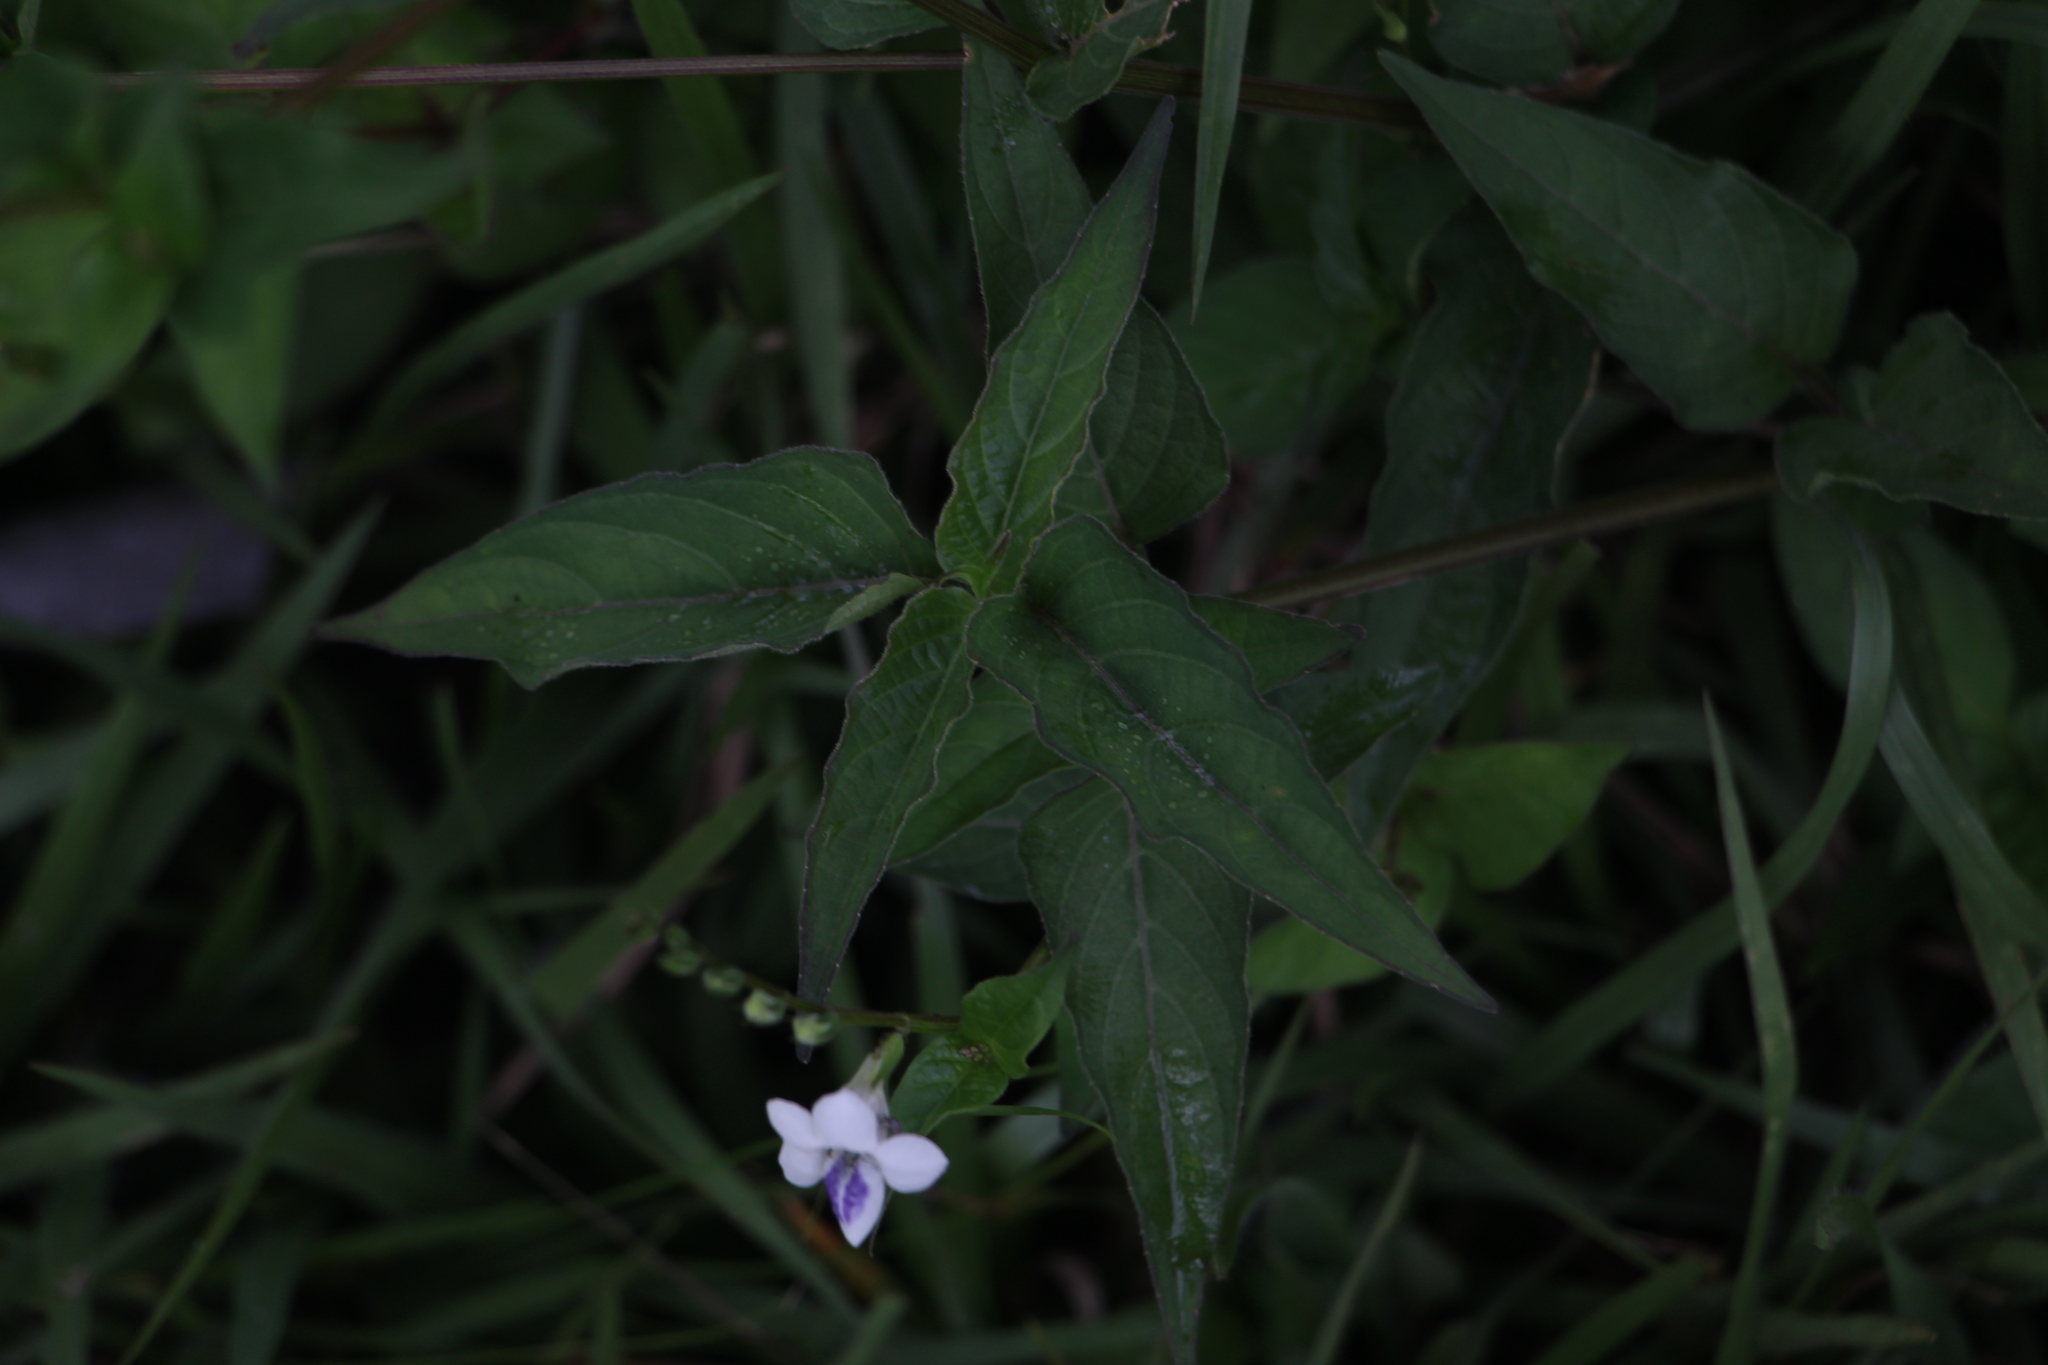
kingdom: Plantae
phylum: Tracheophyta
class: Magnoliopsida
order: Lamiales
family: Acanthaceae
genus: Asystasia
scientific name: Asystasia intrusa
